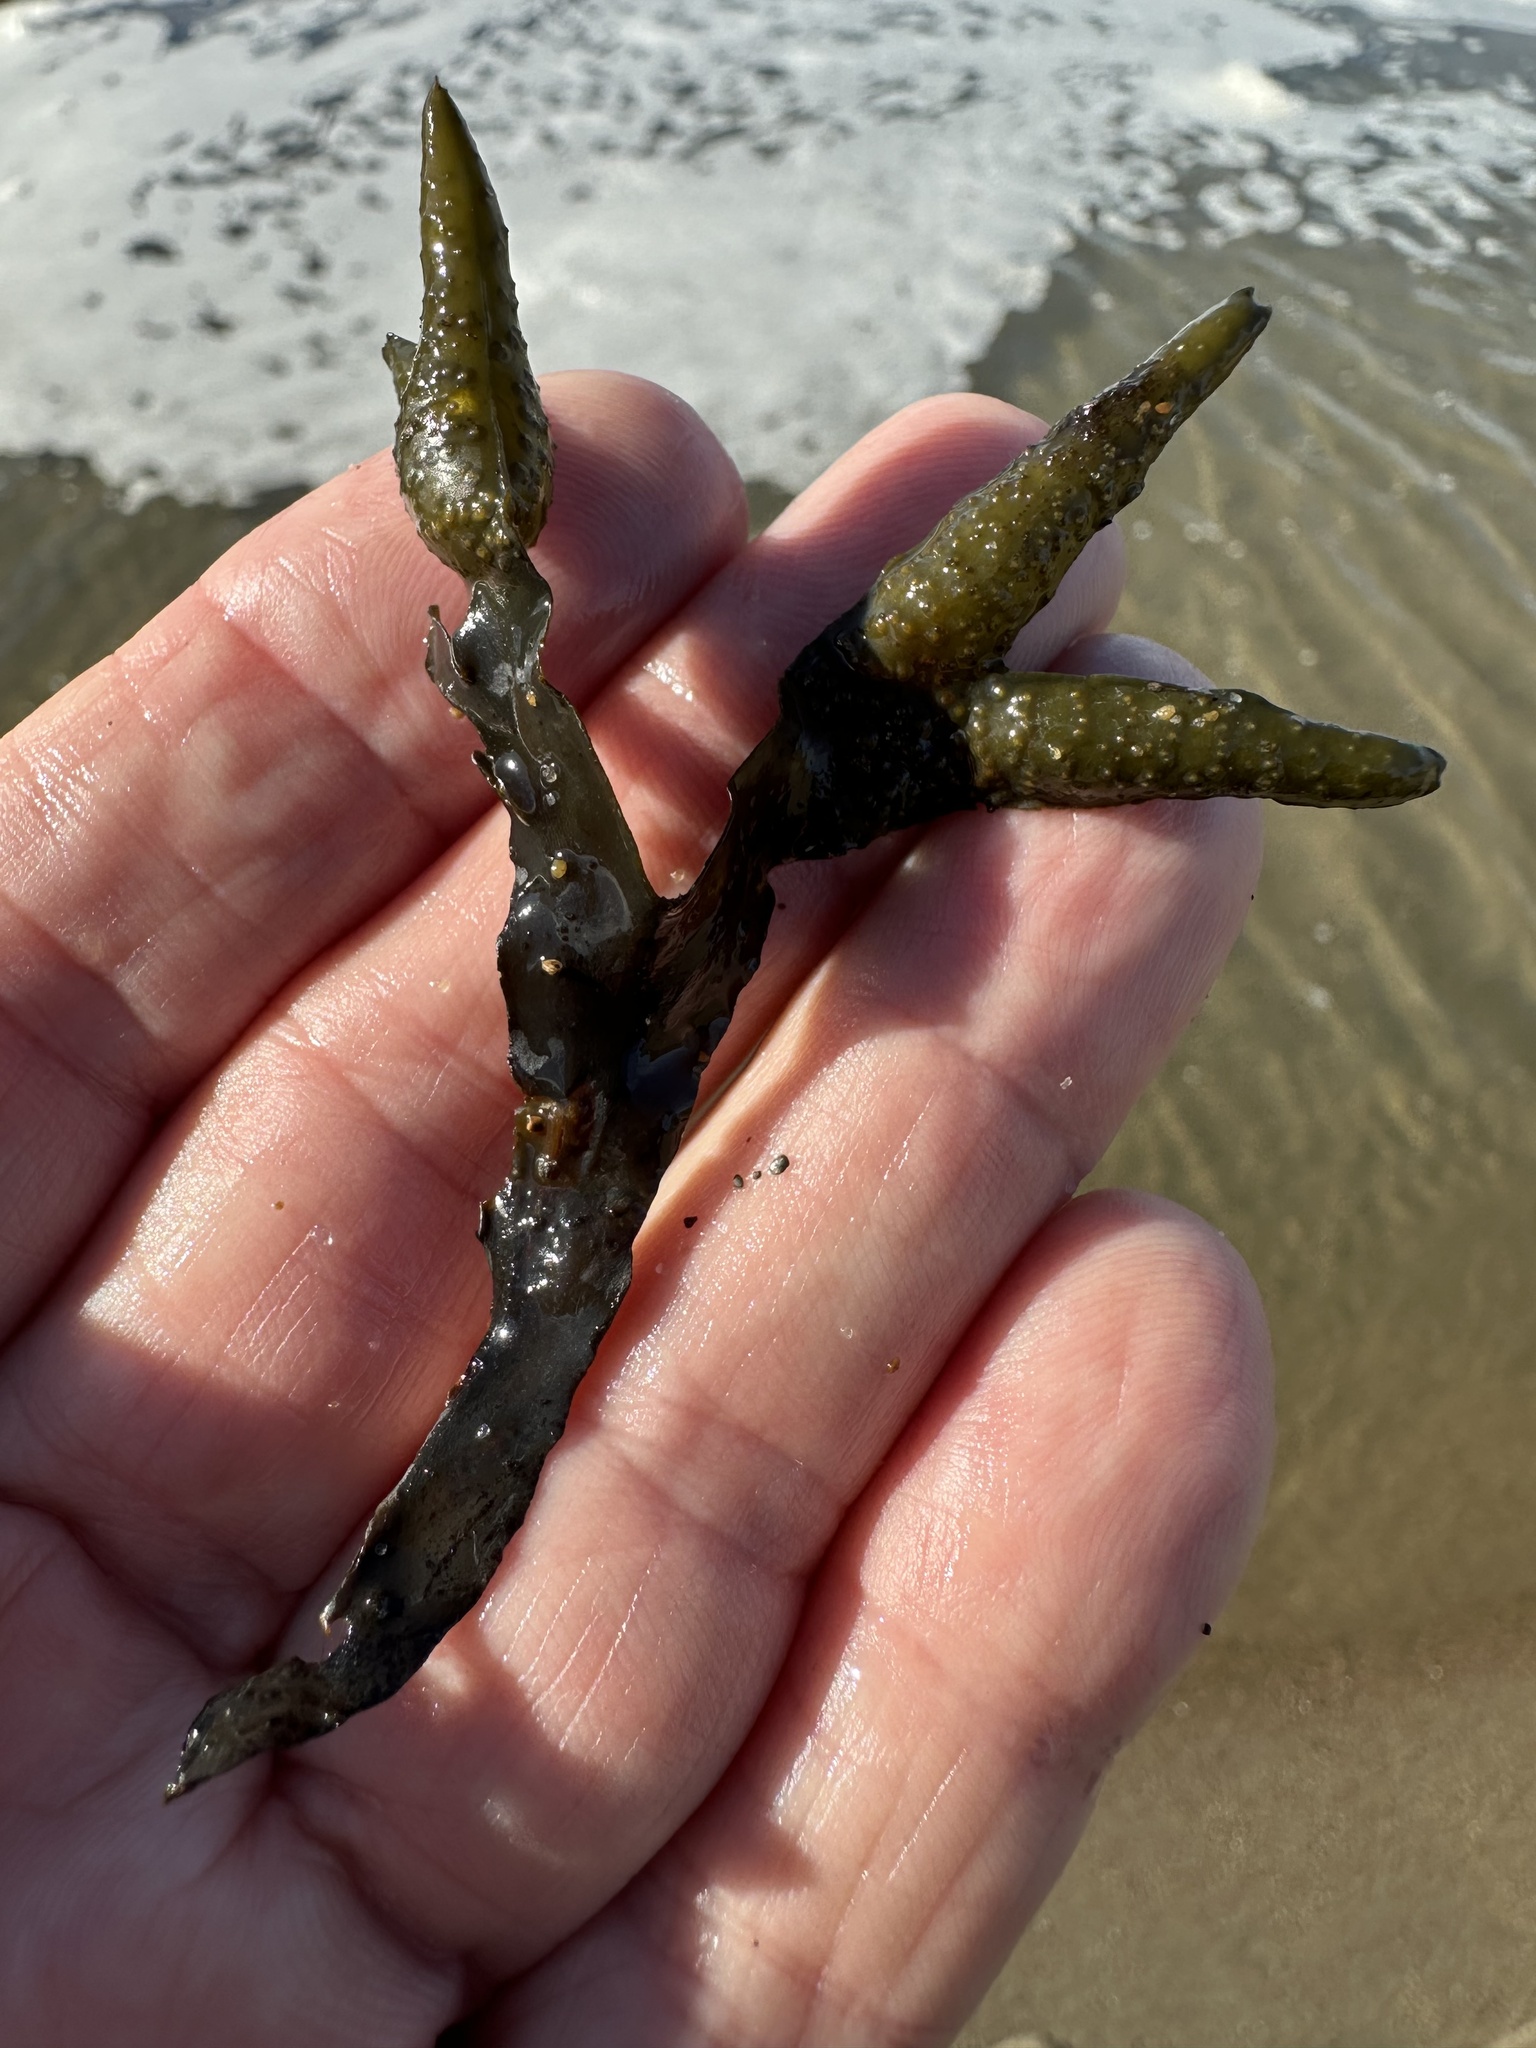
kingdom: Chromista
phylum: Ochrophyta
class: Phaeophyceae
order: Fucales
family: Fucaceae
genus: Fucus
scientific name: Fucus distichus
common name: Rockweed
